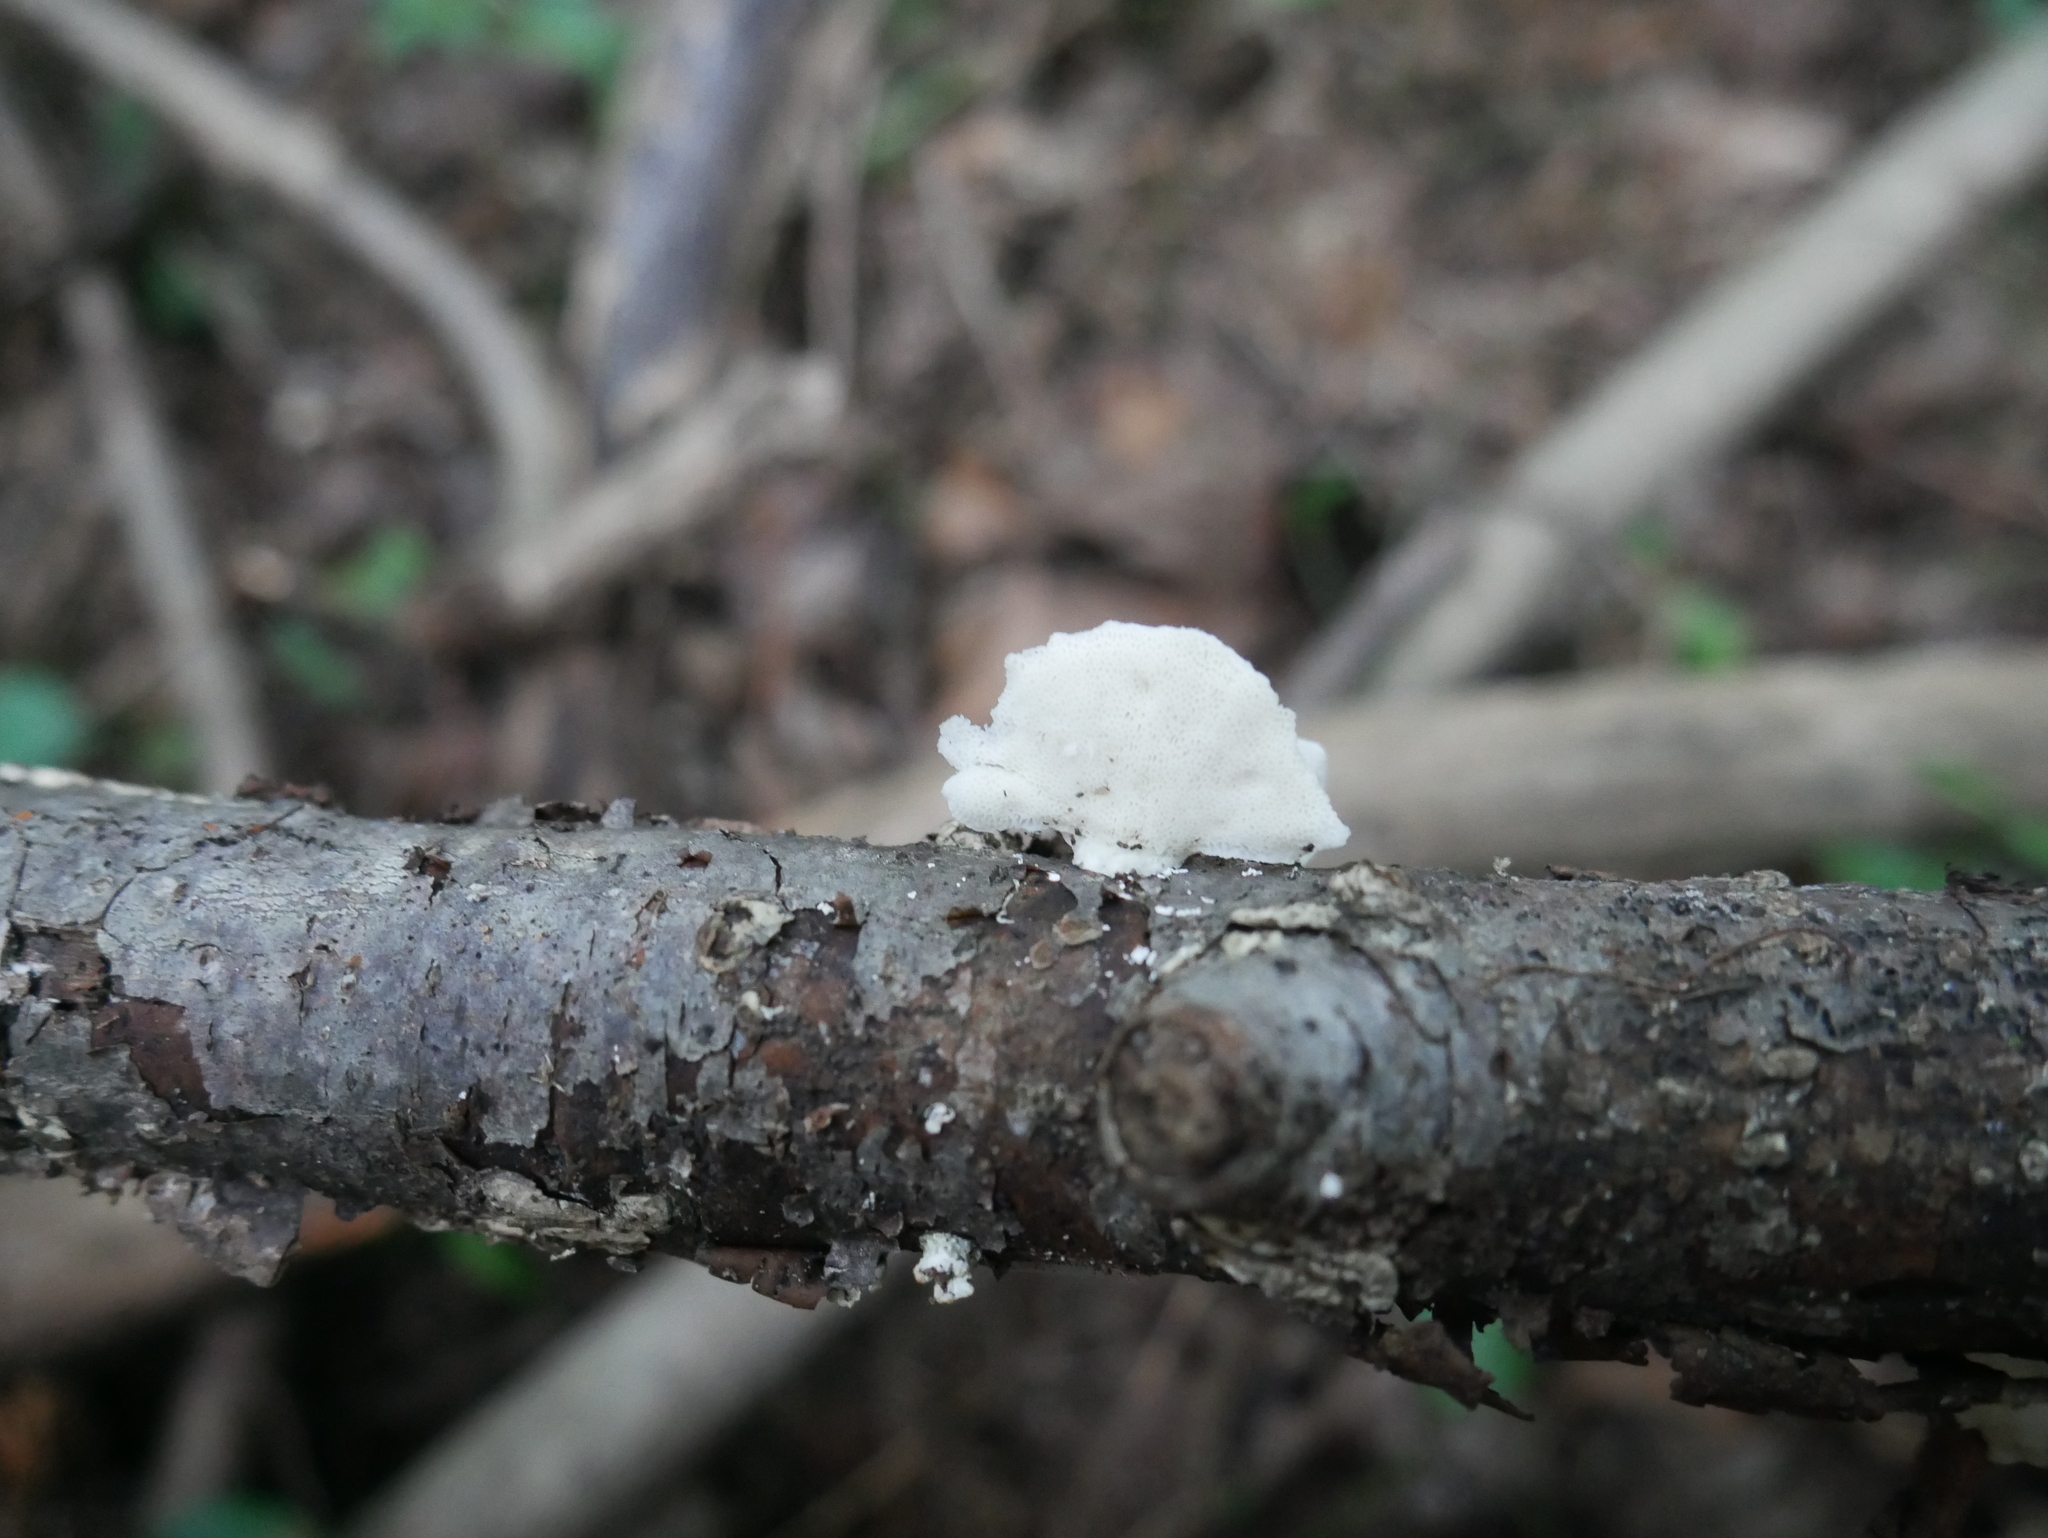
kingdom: Fungi
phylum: Basidiomycota
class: Agaricomycetes
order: Polyporales
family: Polyporaceae
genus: Poronidulus
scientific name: Poronidulus conchifer
